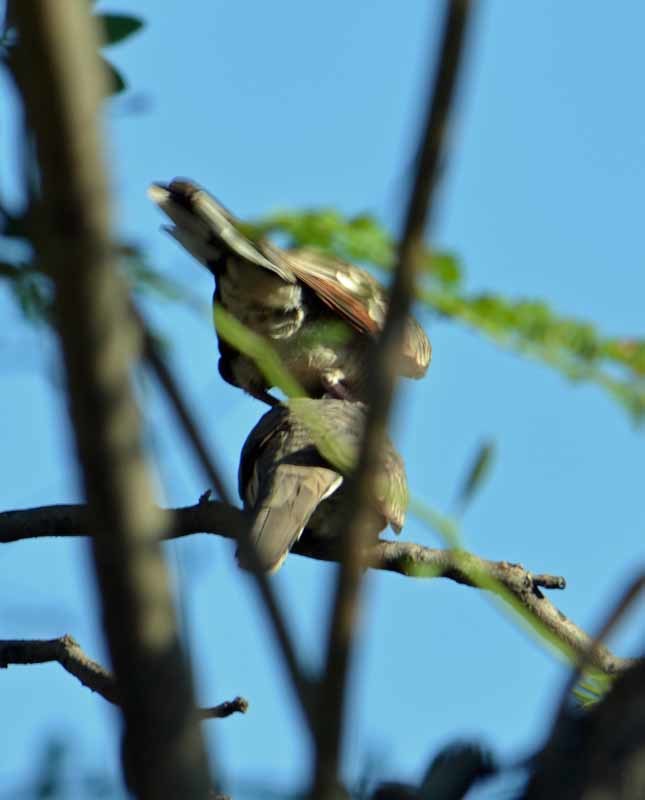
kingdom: Animalia
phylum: Chordata
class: Aves
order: Columbiformes
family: Columbidae
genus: Columbina
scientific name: Columbina inca
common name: Inca dove
